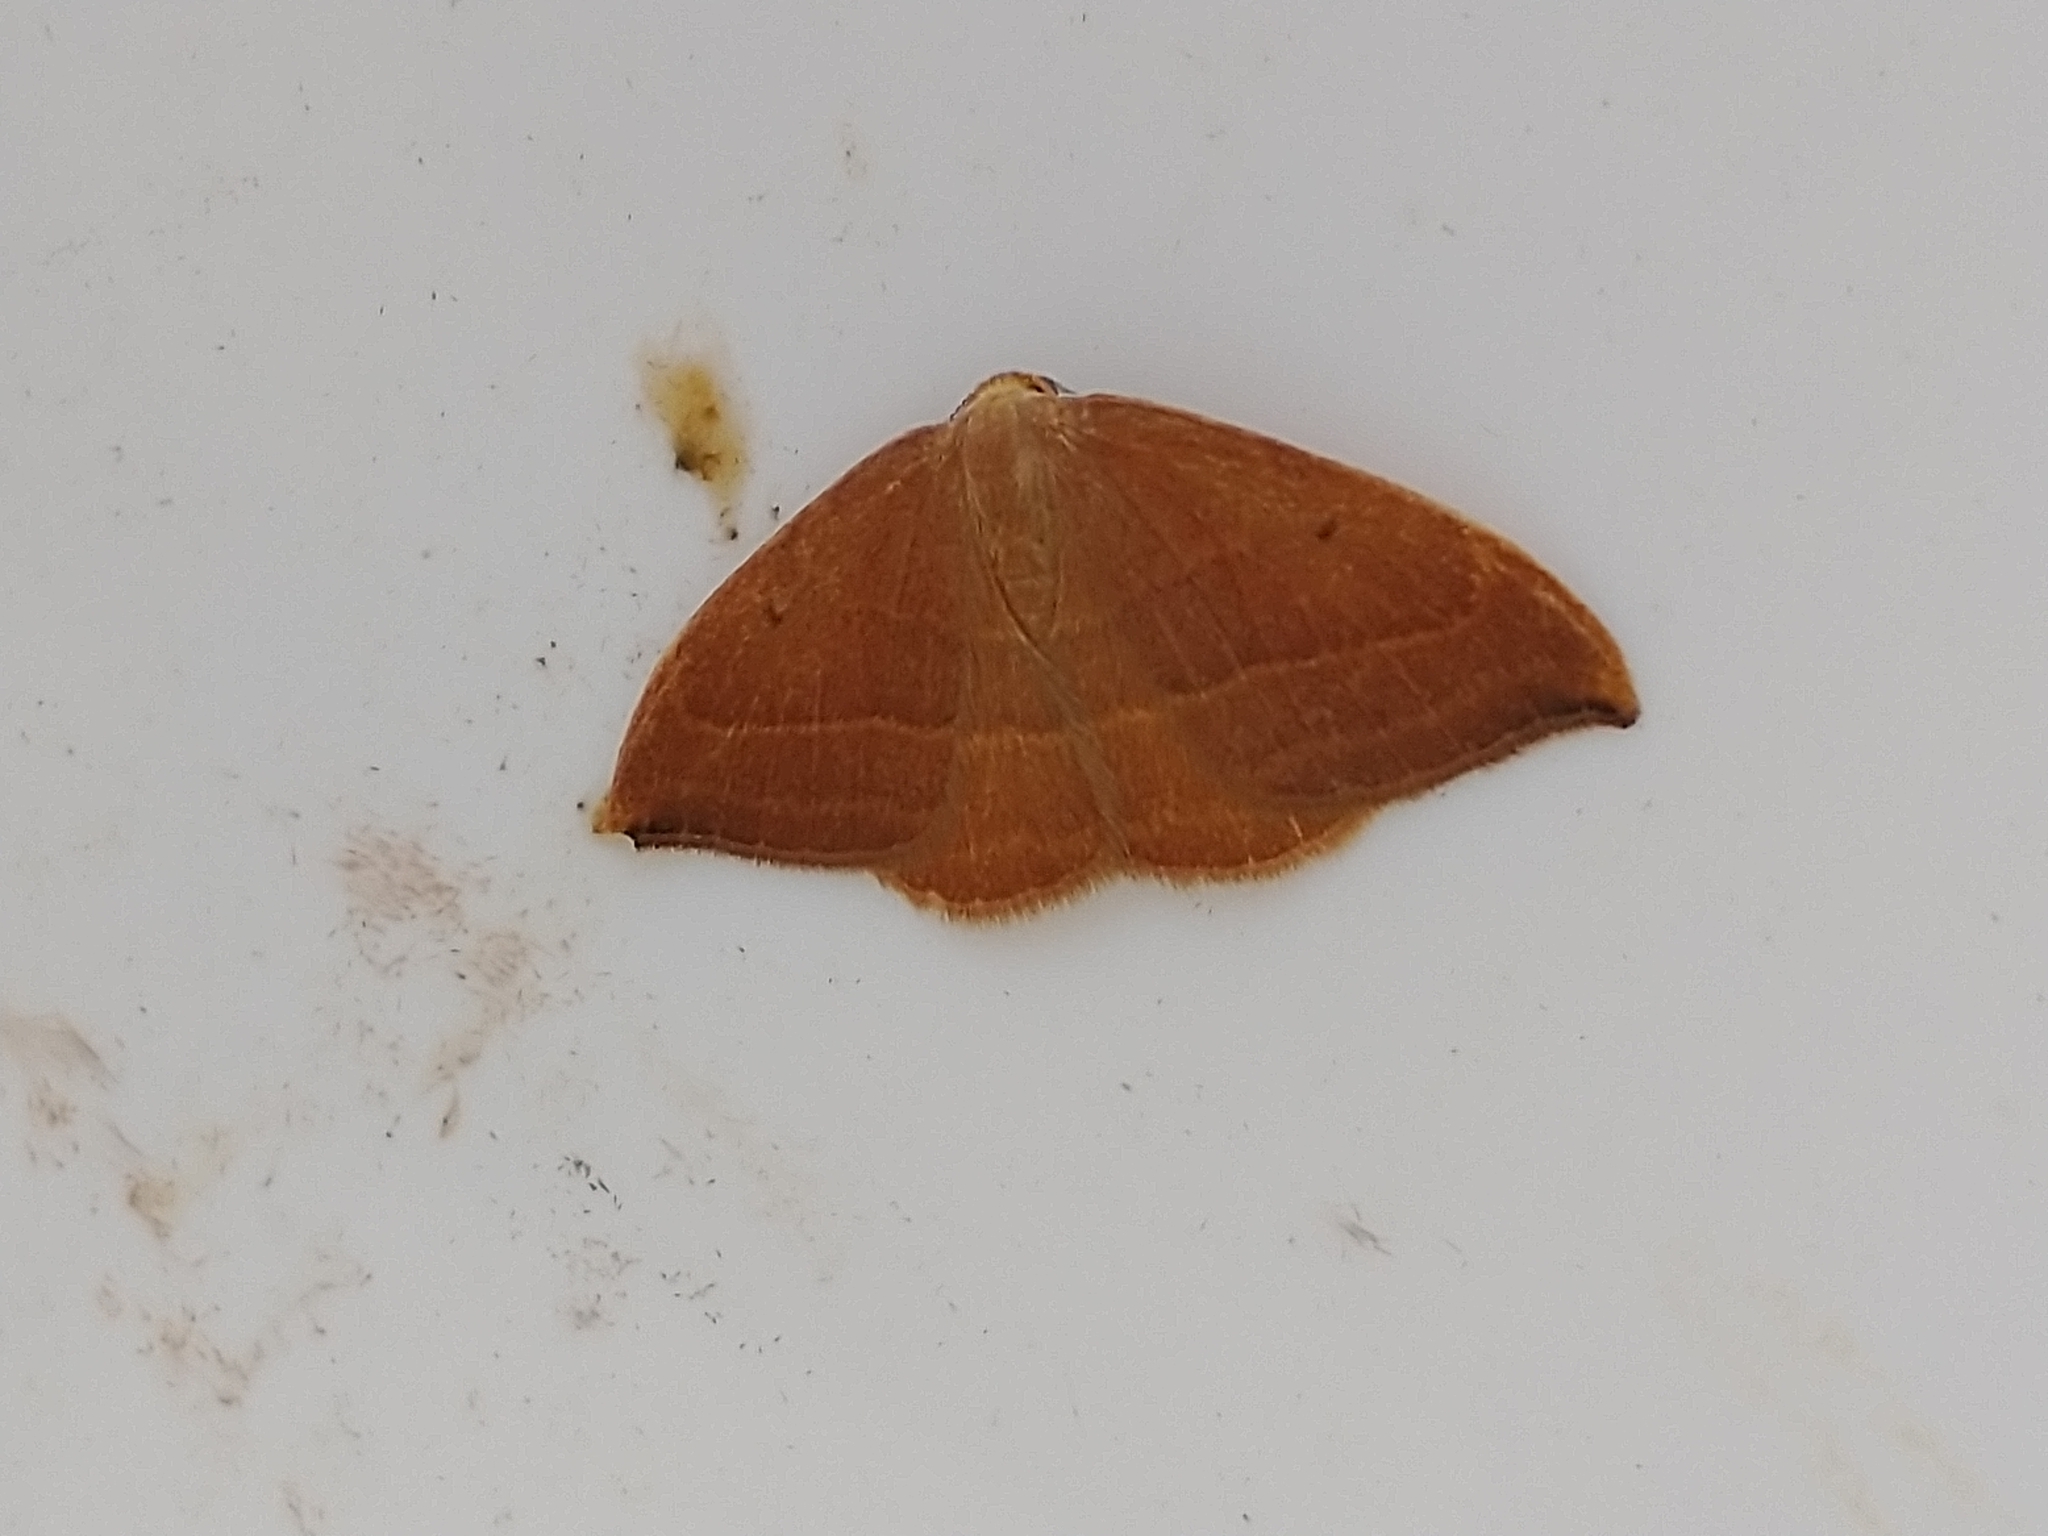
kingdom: Animalia
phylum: Arthropoda
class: Insecta
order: Lepidoptera
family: Drepanidae
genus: Watsonalla
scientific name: Watsonalla cultraria
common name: Barred hook-tip
